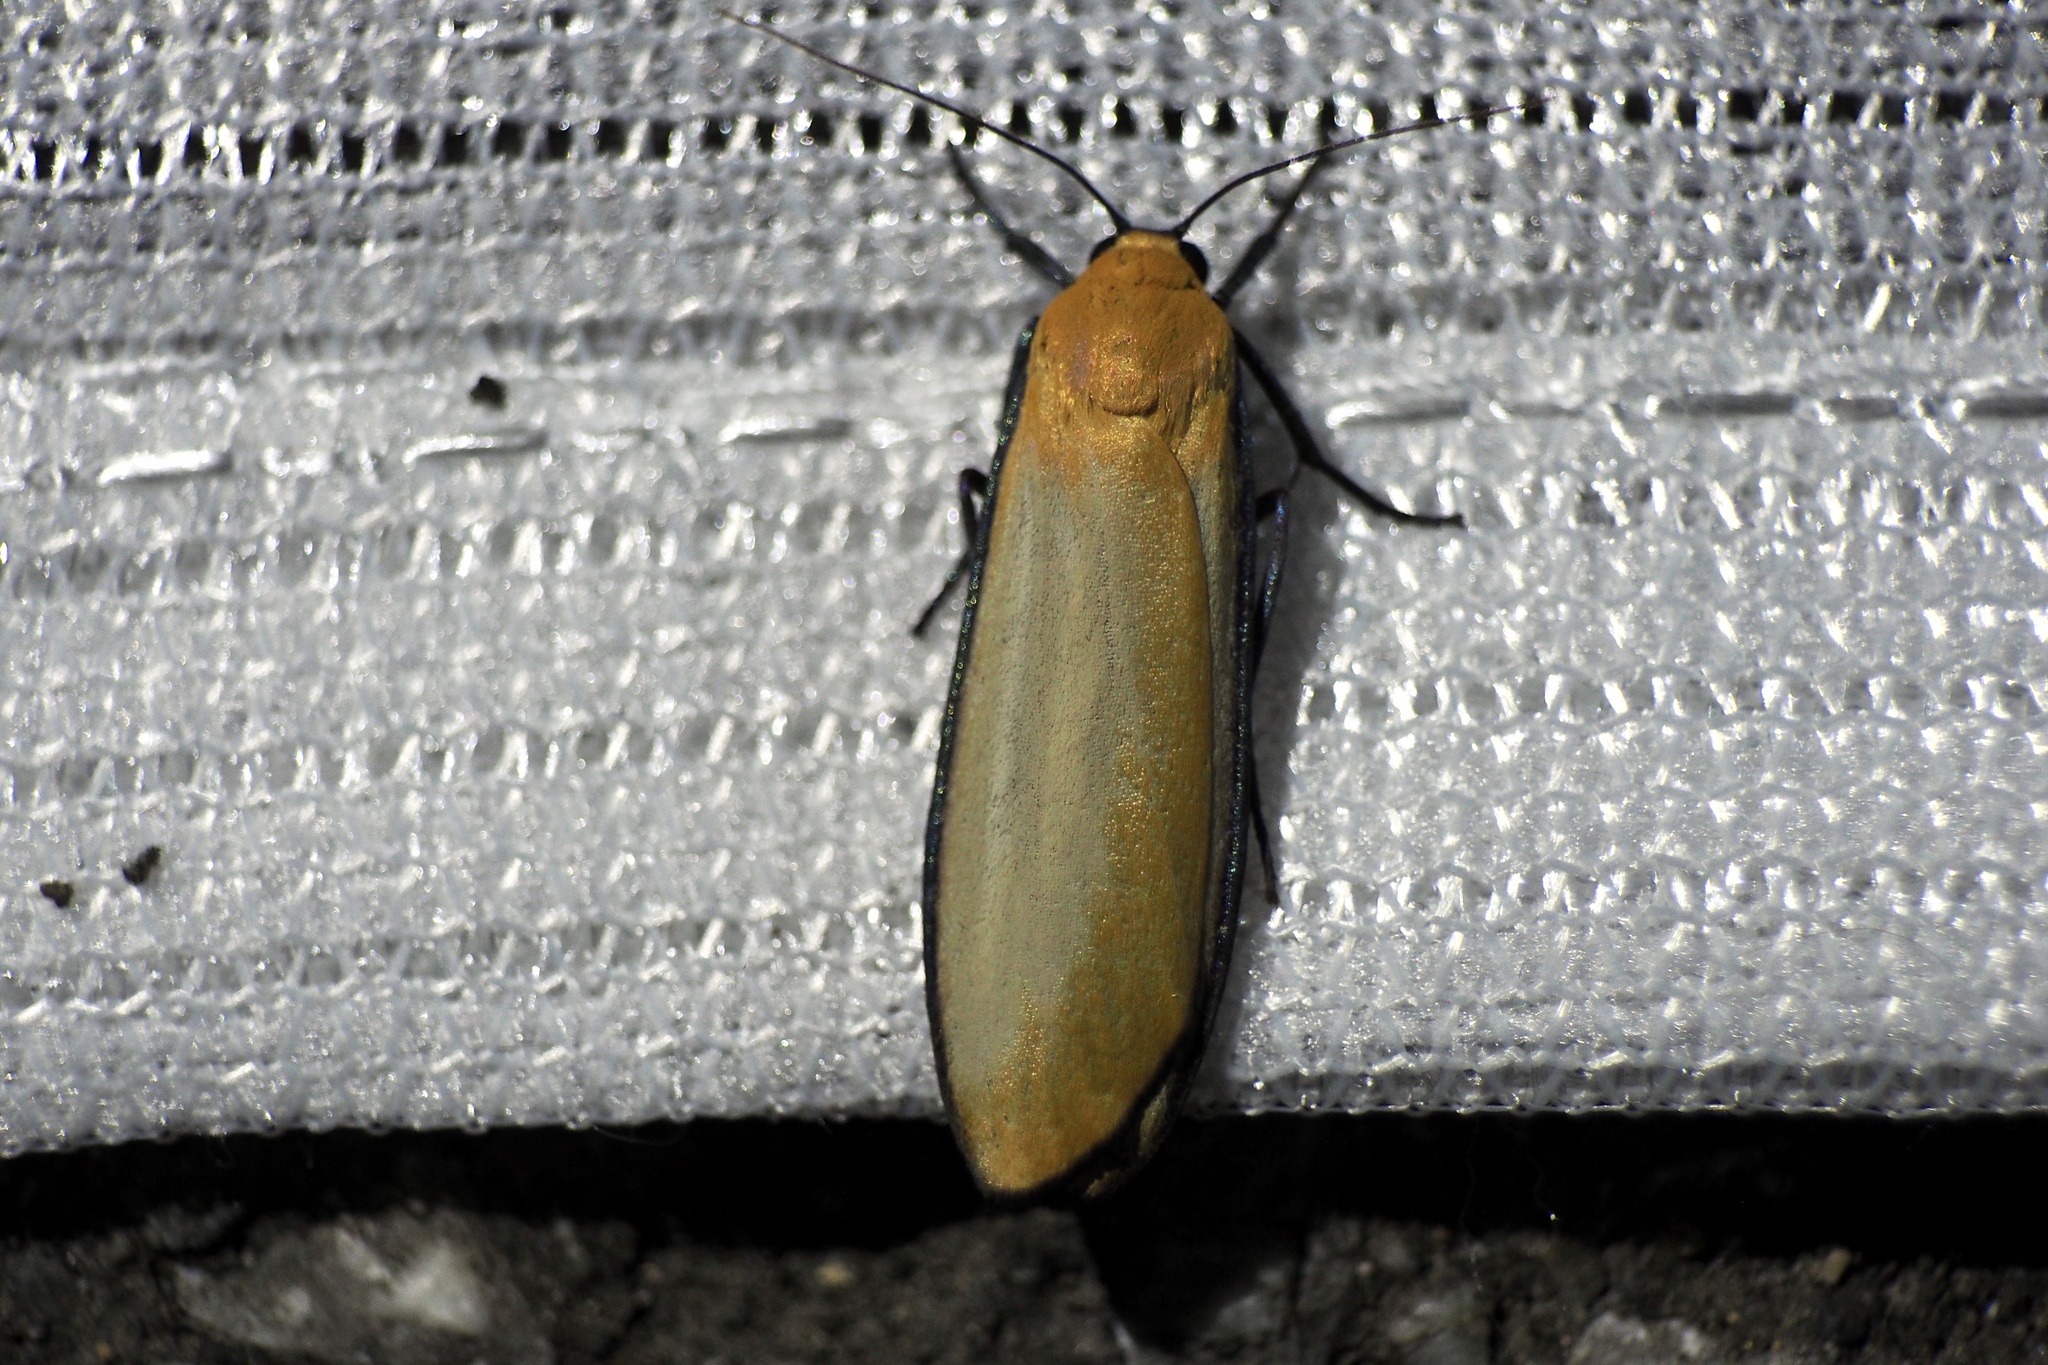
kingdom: Animalia
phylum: Arthropoda
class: Insecta
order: Lepidoptera
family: Erebidae
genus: Conilepia
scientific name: Conilepia nigricosta
